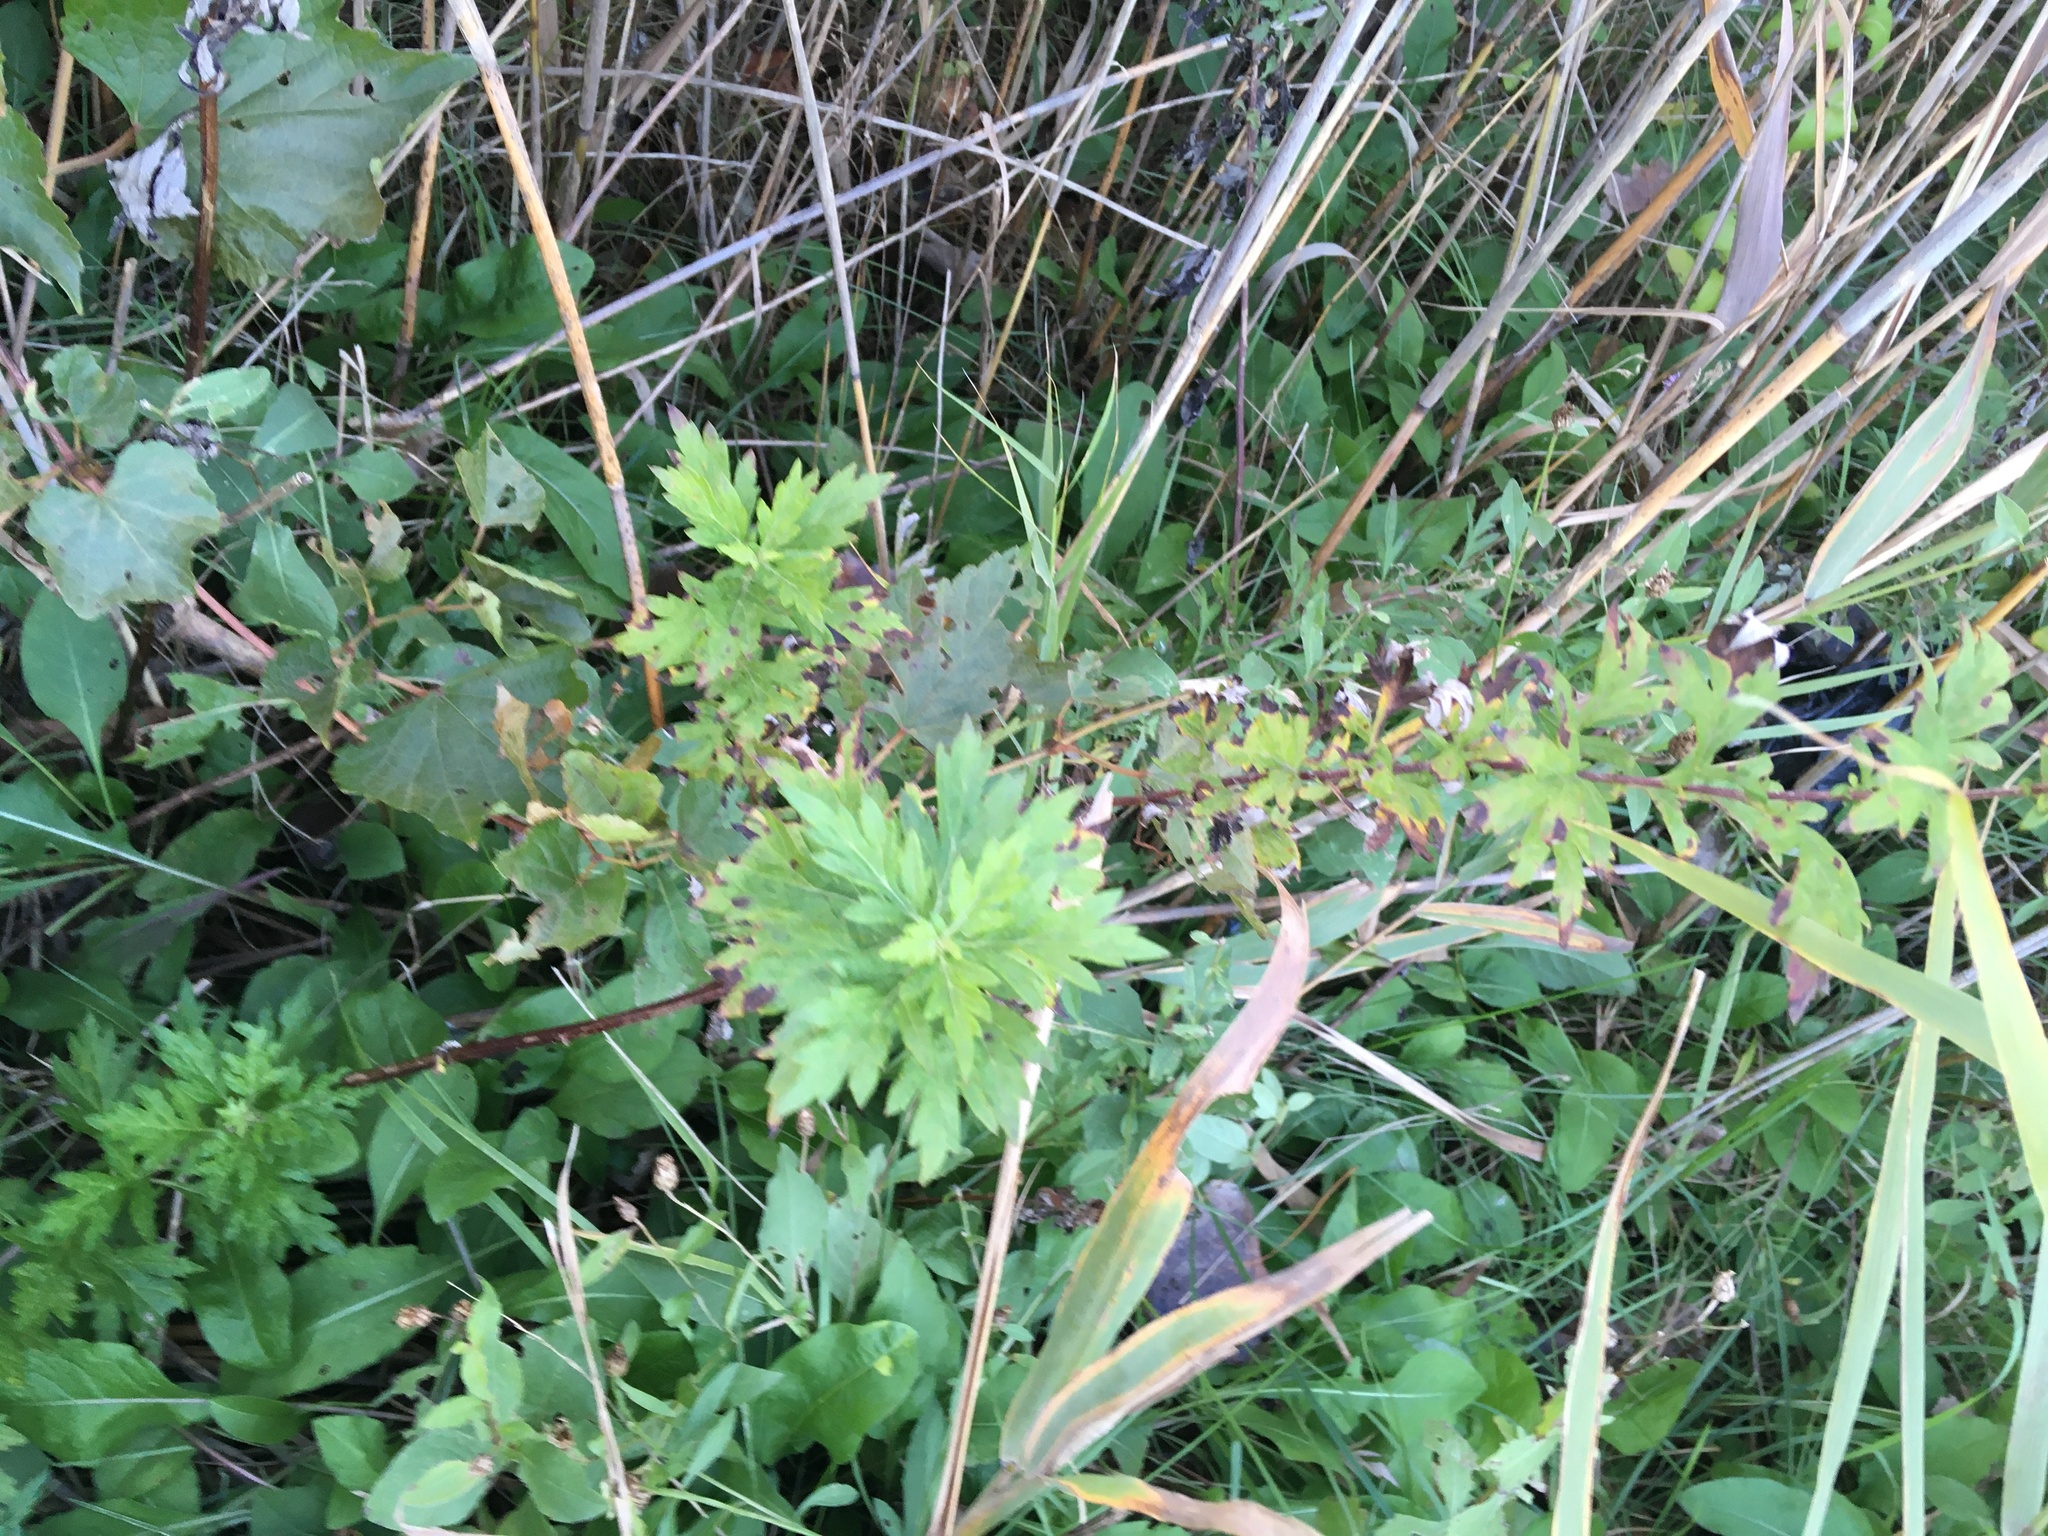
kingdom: Plantae
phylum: Tracheophyta
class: Magnoliopsida
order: Asterales
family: Asteraceae
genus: Artemisia
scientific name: Artemisia vulgaris
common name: Mugwort
